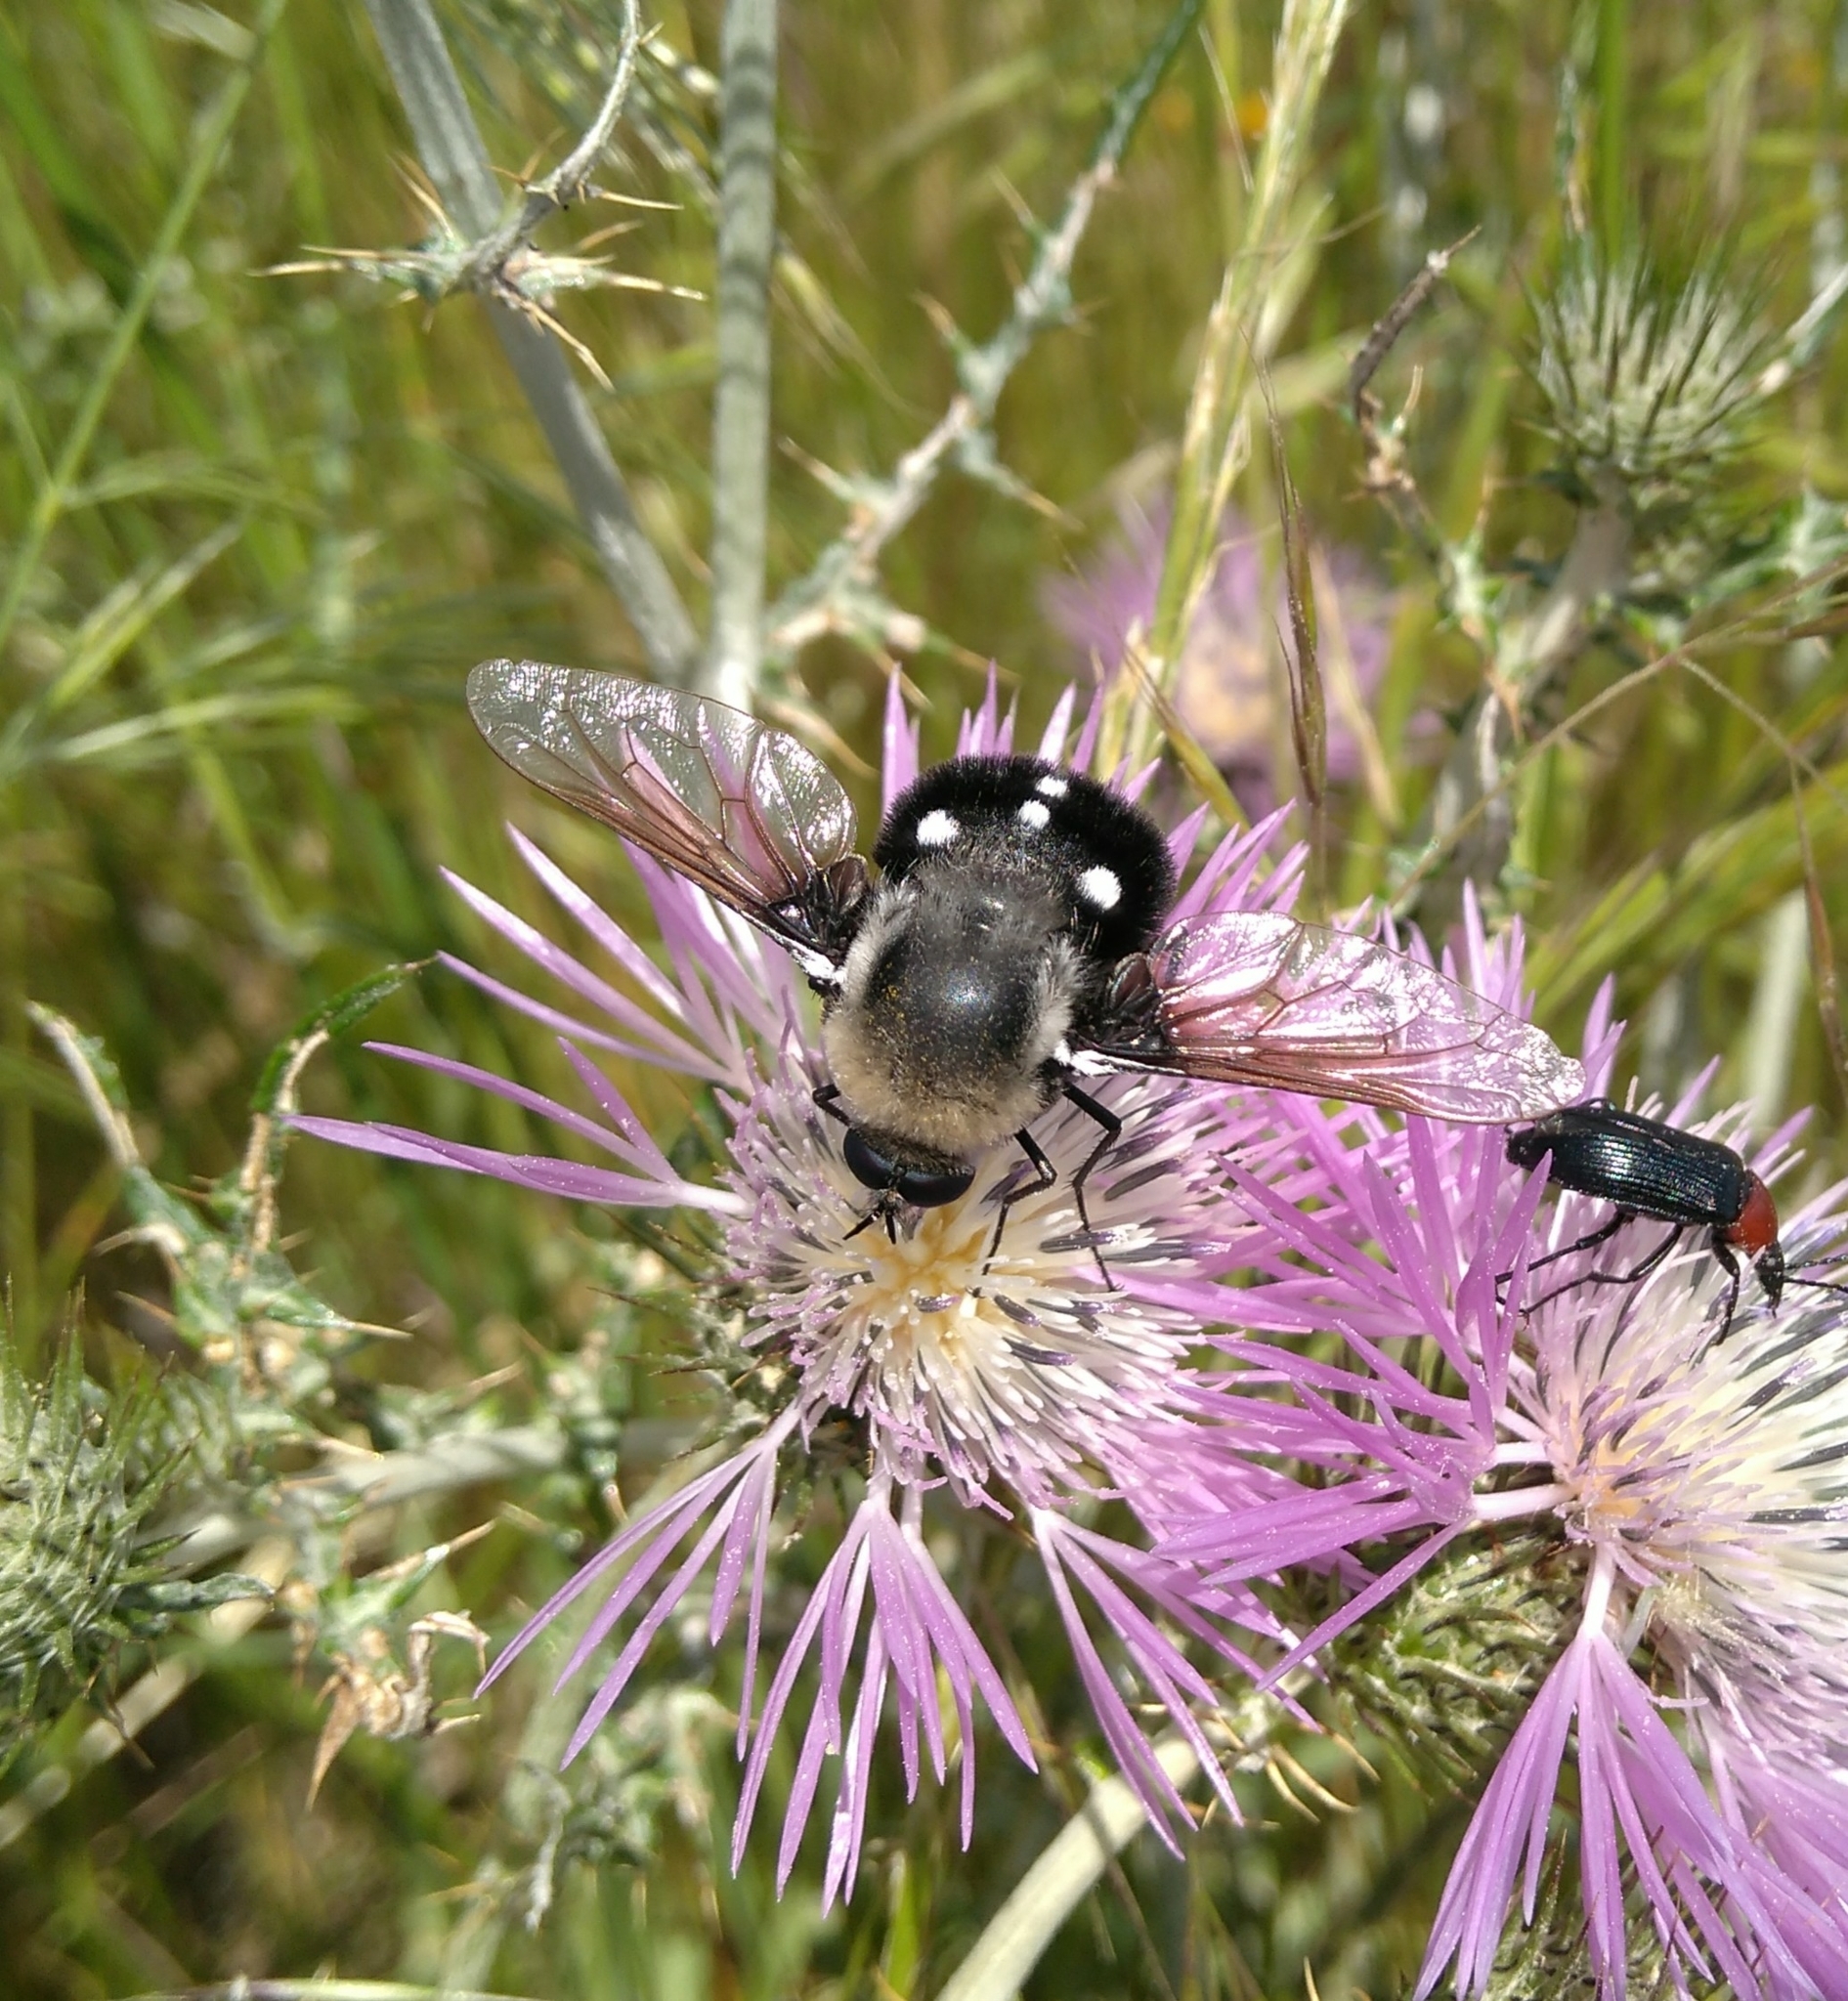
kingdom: Animalia
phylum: Arthropoda
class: Insecta
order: Diptera
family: Bombyliidae
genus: Bombomyia
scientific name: Bombomyia vertebralis
